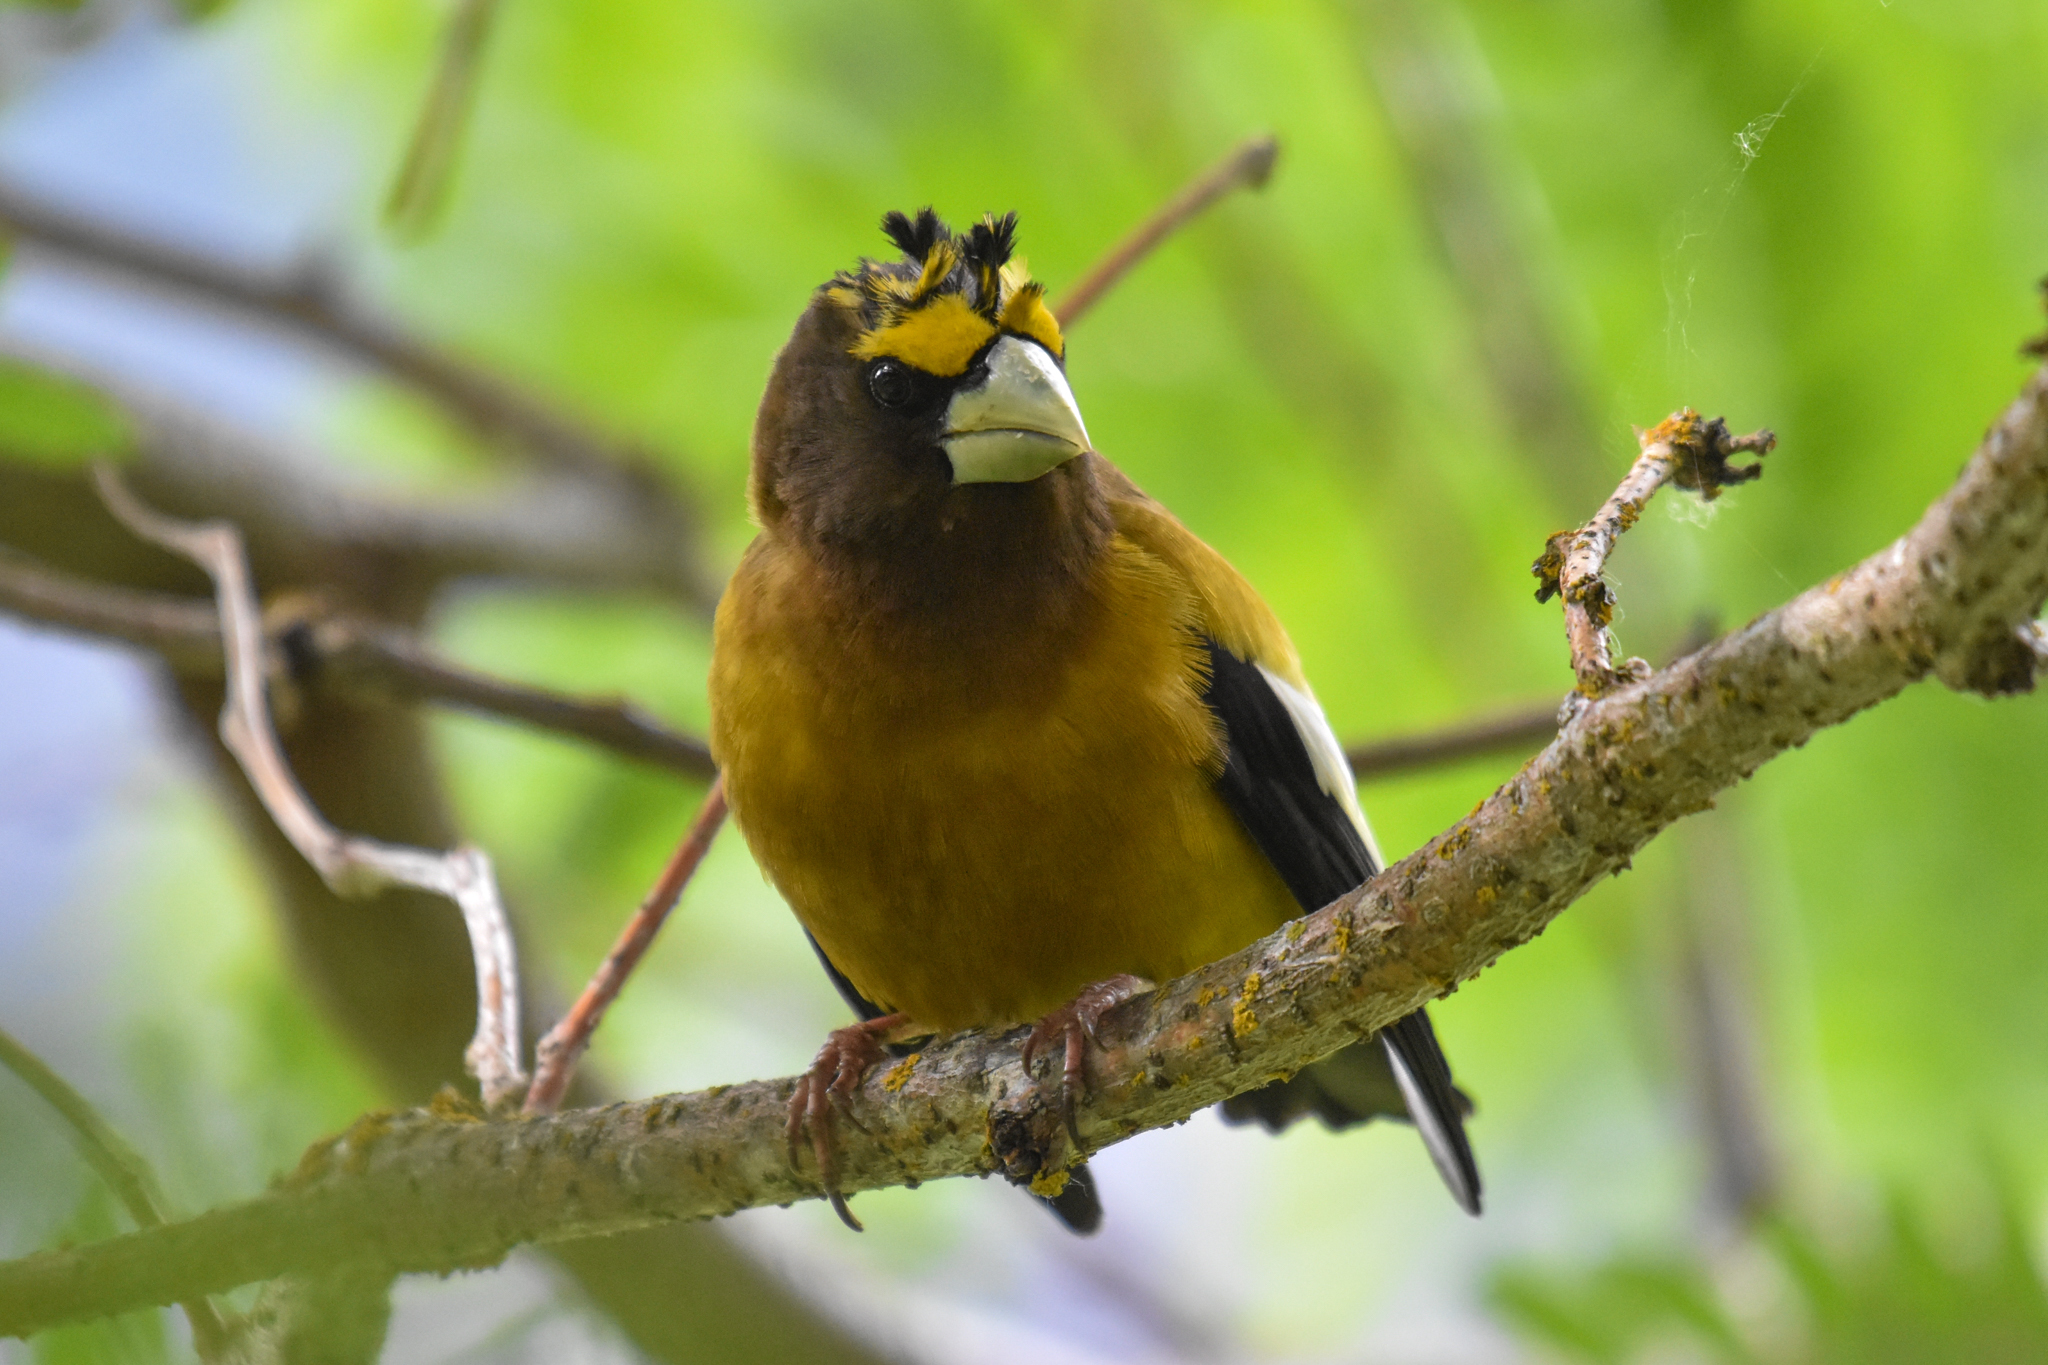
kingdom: Animalia
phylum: Chordata
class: Aves
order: Passeriformes
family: Fringillidae
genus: Hesperiphona
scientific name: Hesperiphona vespertina
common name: Evening grosbeak
